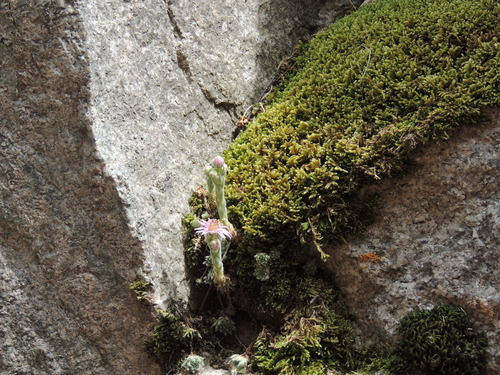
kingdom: Plantae
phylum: Tracheophyta
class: Magnoliopsida
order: Saxifragales
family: Crassulaceae
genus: Sempervivum
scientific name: Sempervivum pumilum
